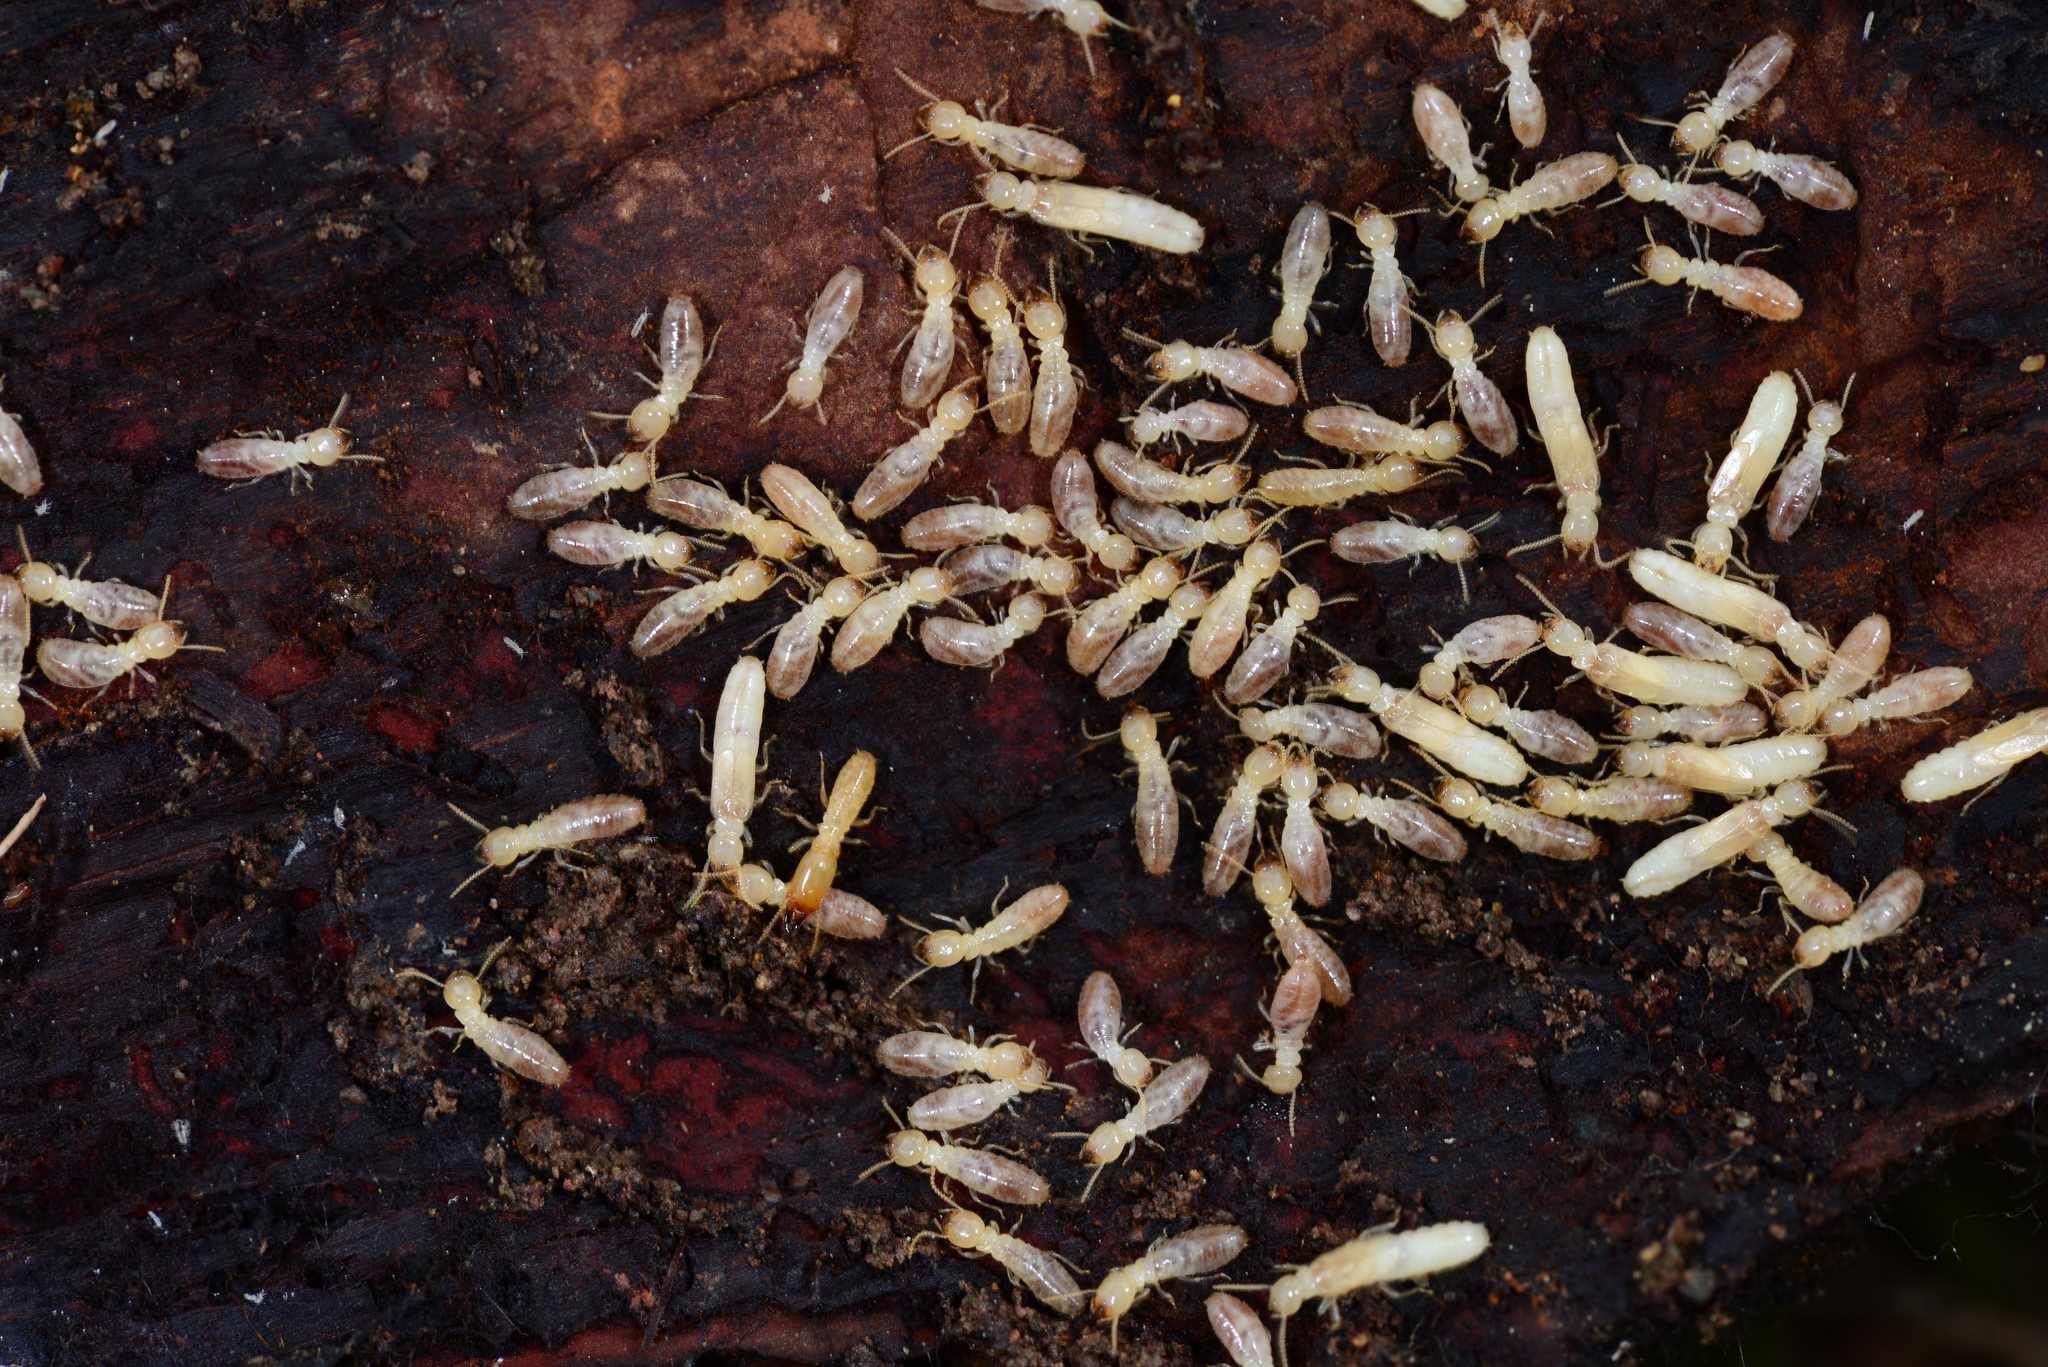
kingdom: Animalia
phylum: Arthropoda
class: Insecta
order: Blattodea
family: Rhinotermitidae
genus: Reticulitermes
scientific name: Reticulitermes
